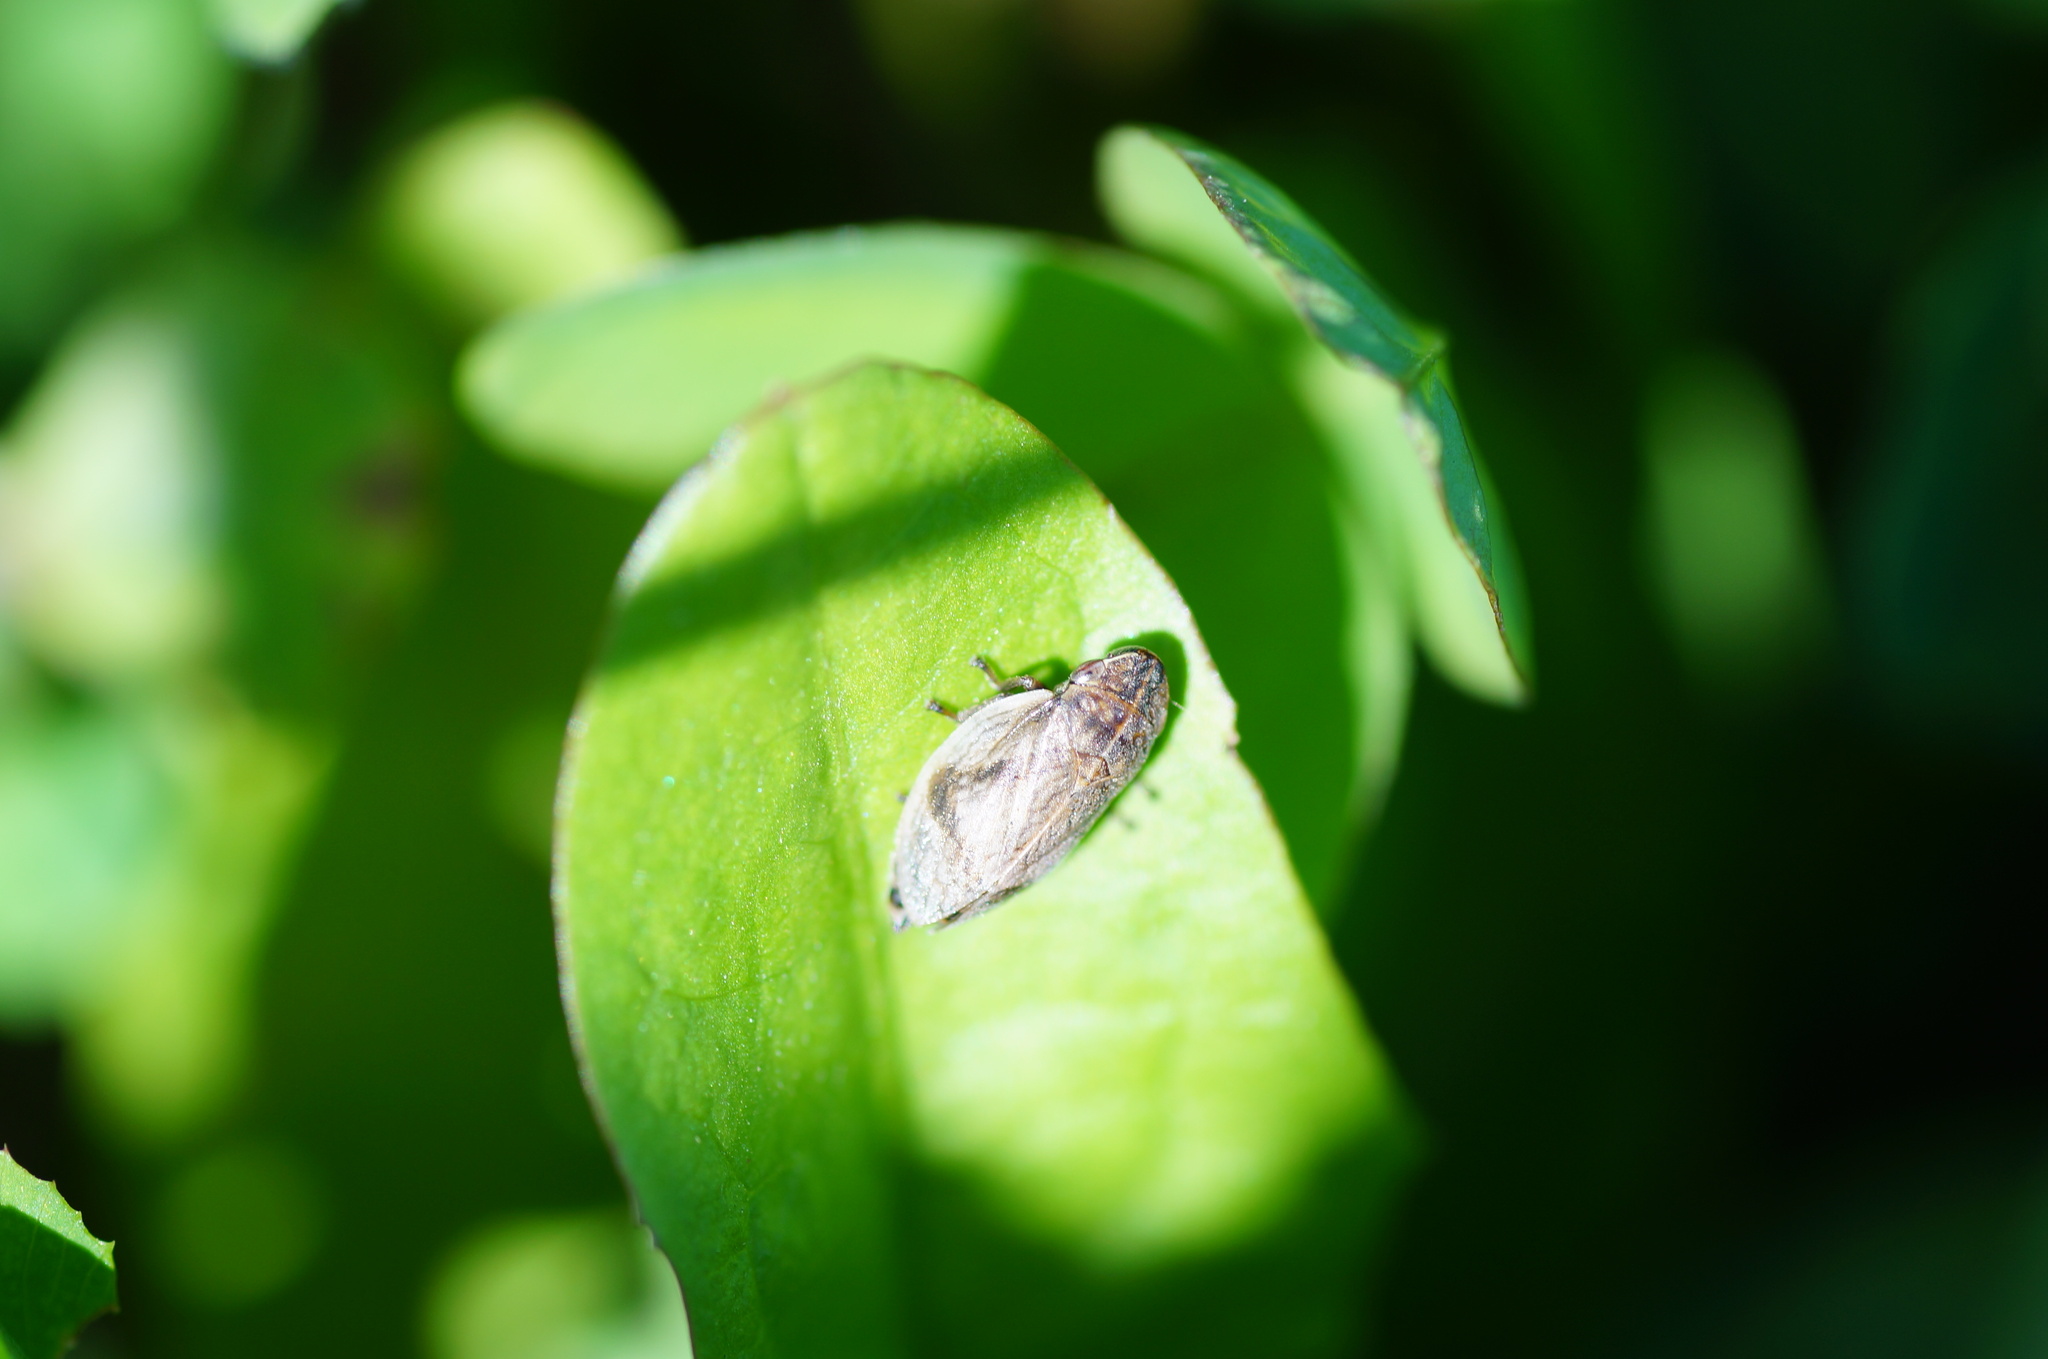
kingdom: Animalia
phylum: Arthropoda
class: Insecta
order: Hemiptera
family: Aphrophoridae
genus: Lepyronia
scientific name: Lepyronia coleoptrata
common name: Leafhopper
